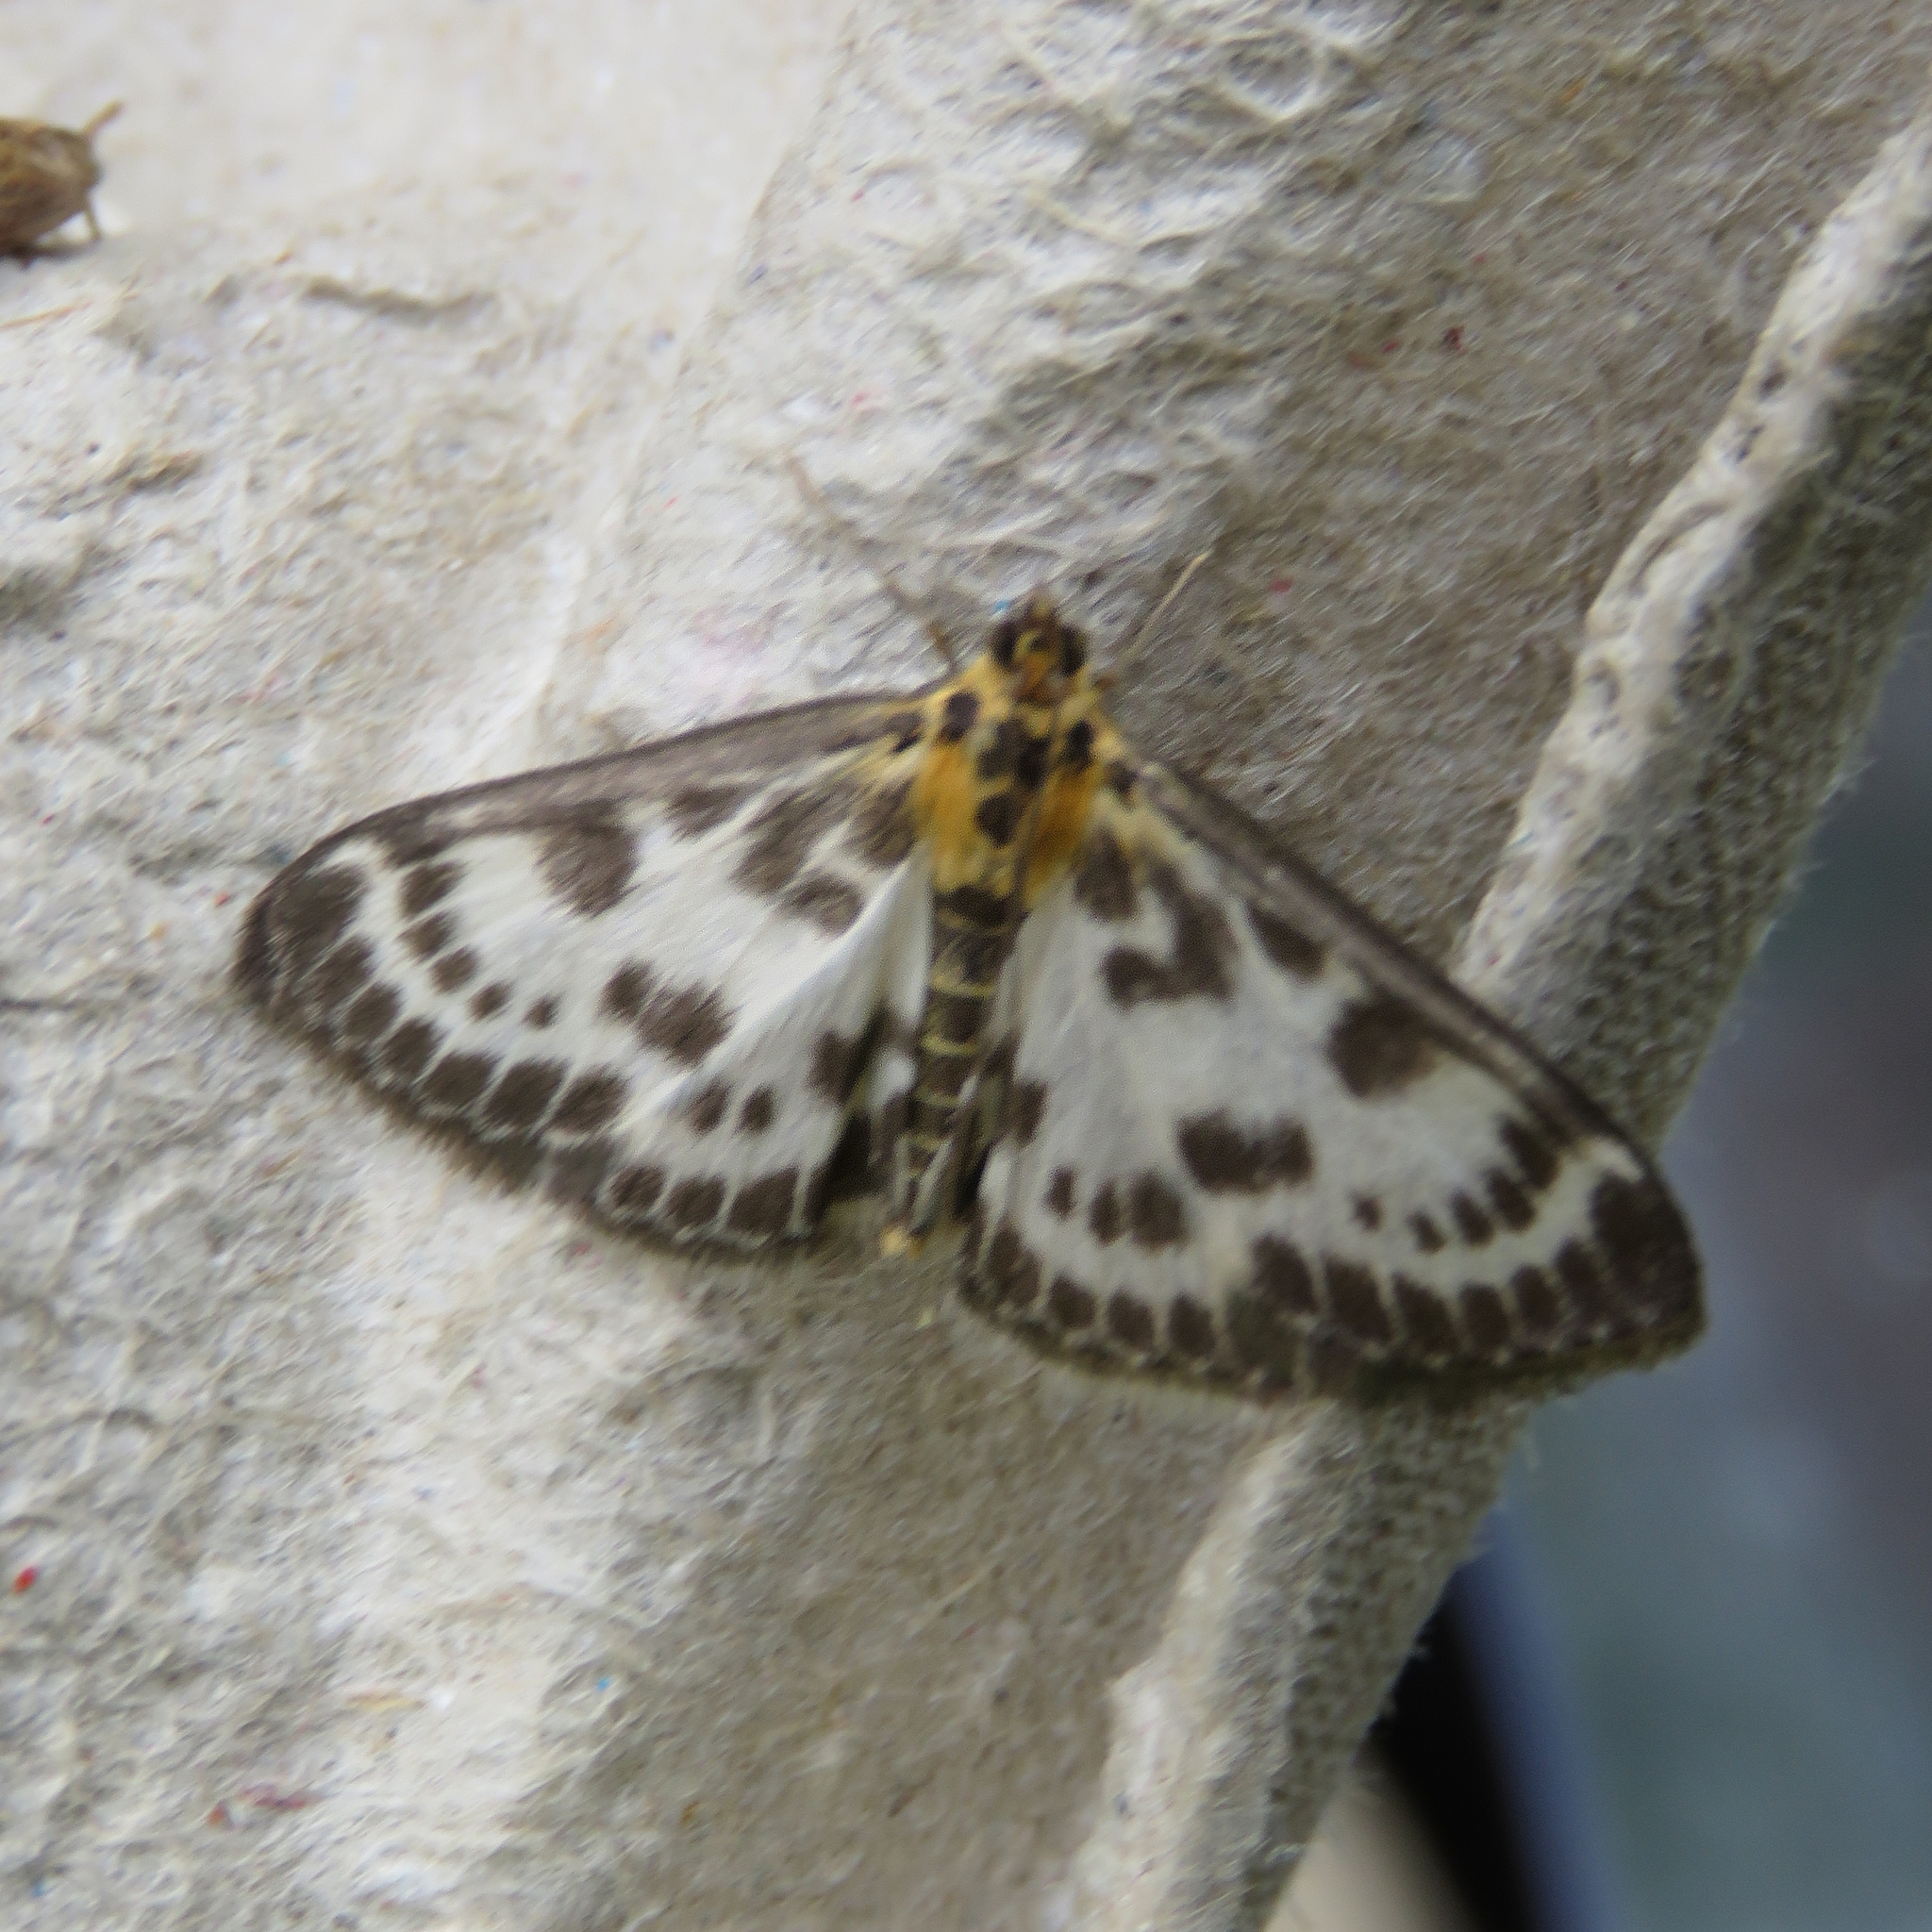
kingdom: Animalia
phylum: Arthropoda
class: Insecta
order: Lepidoptera
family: Crambidae
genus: Anania
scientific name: Anania hortulata
